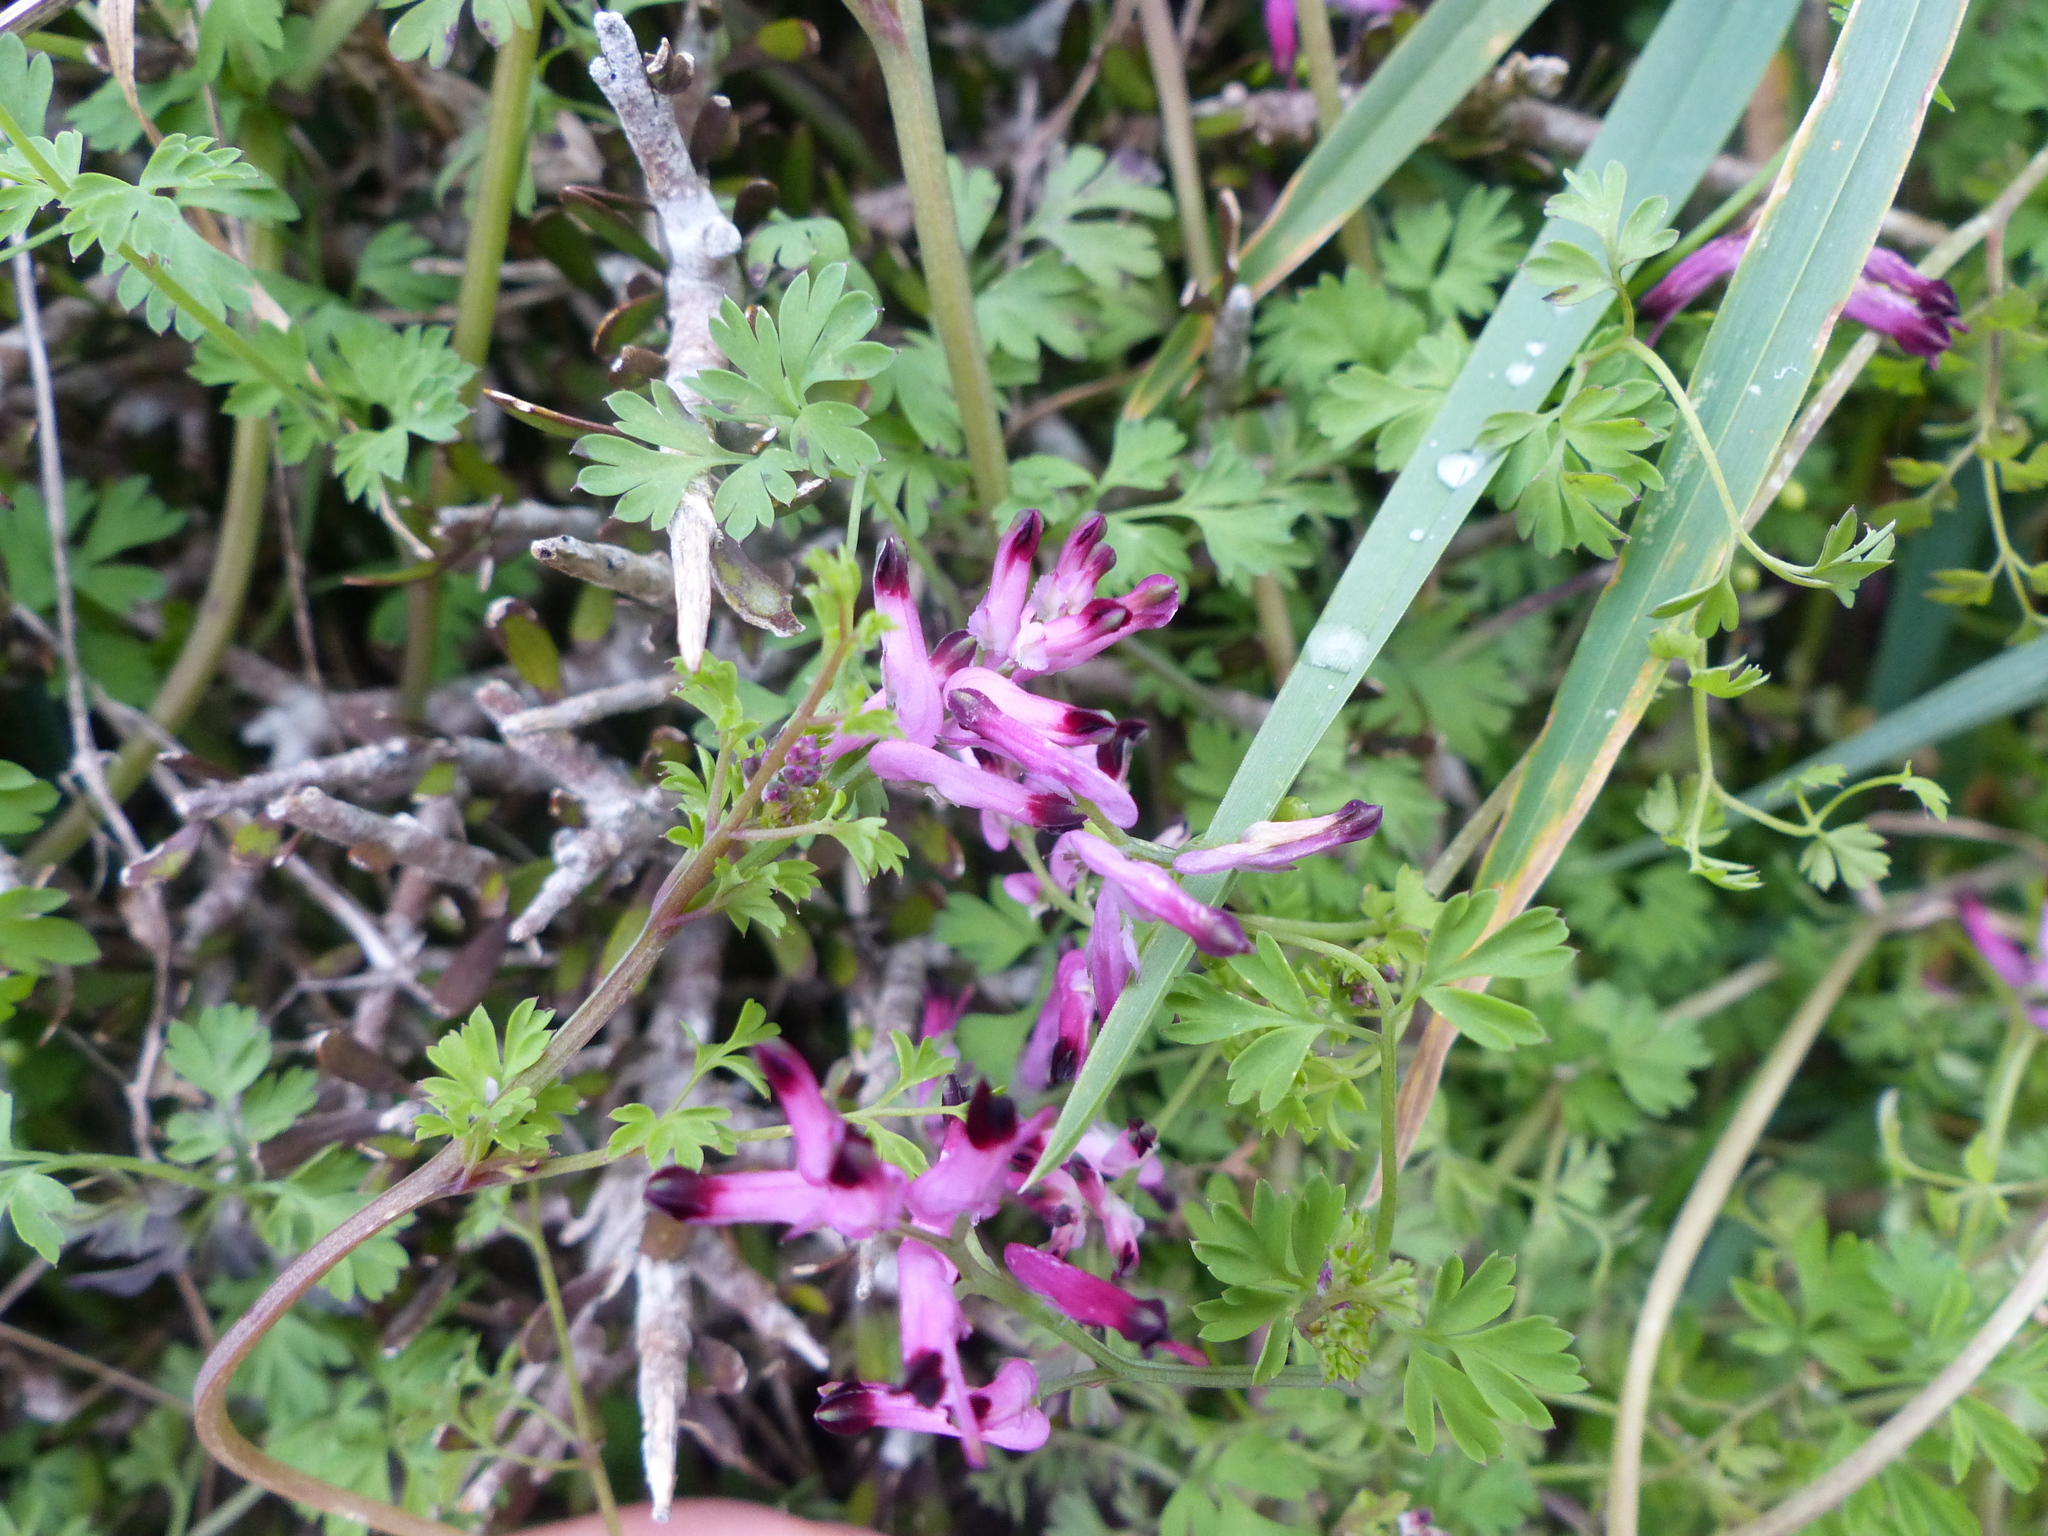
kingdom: Plantae
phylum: Tracheophyta
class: Magnoliopsida
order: Ranunculales
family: Papaveraceae
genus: Fumaria
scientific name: Fumaria muralis
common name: Common ramping-fumitory
